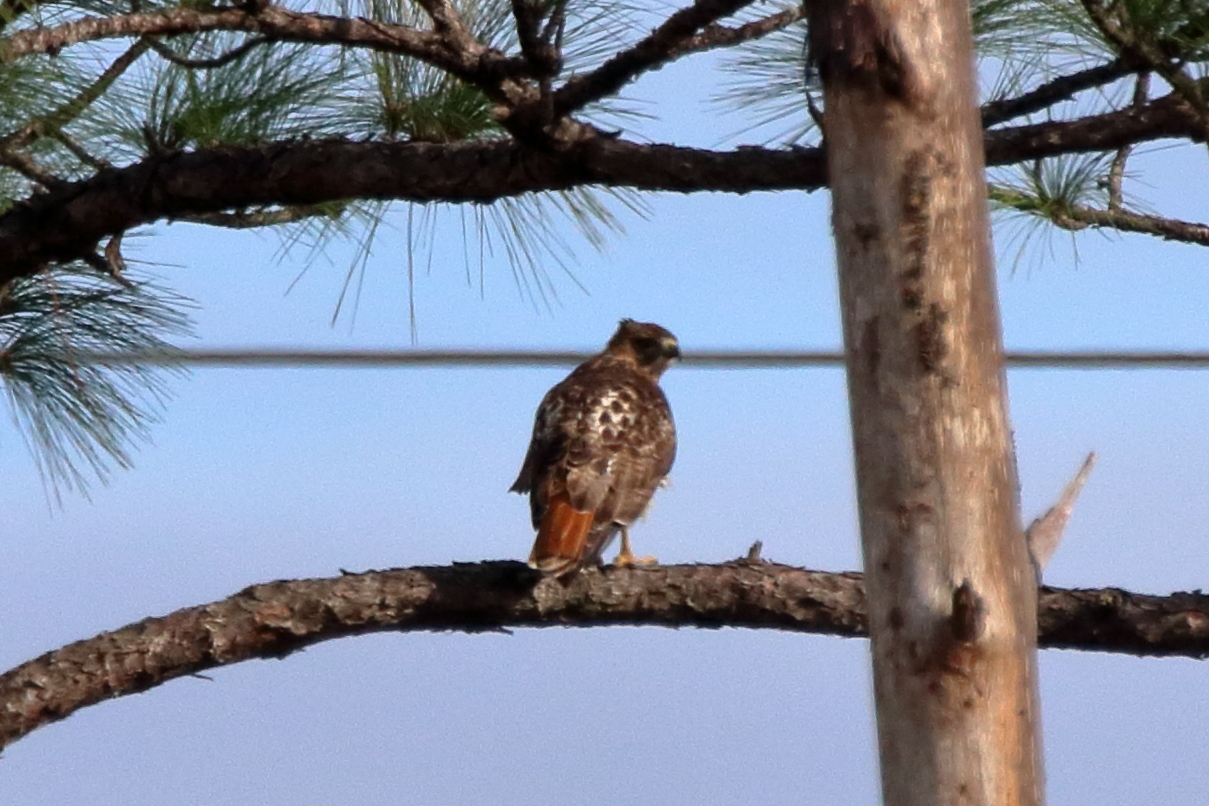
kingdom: Animalia
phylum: Chordata
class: Aves
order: Accipitriformes
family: Accipitridae
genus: Buteo
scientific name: Buteo jamaicensis
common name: Red-tailed hawk
